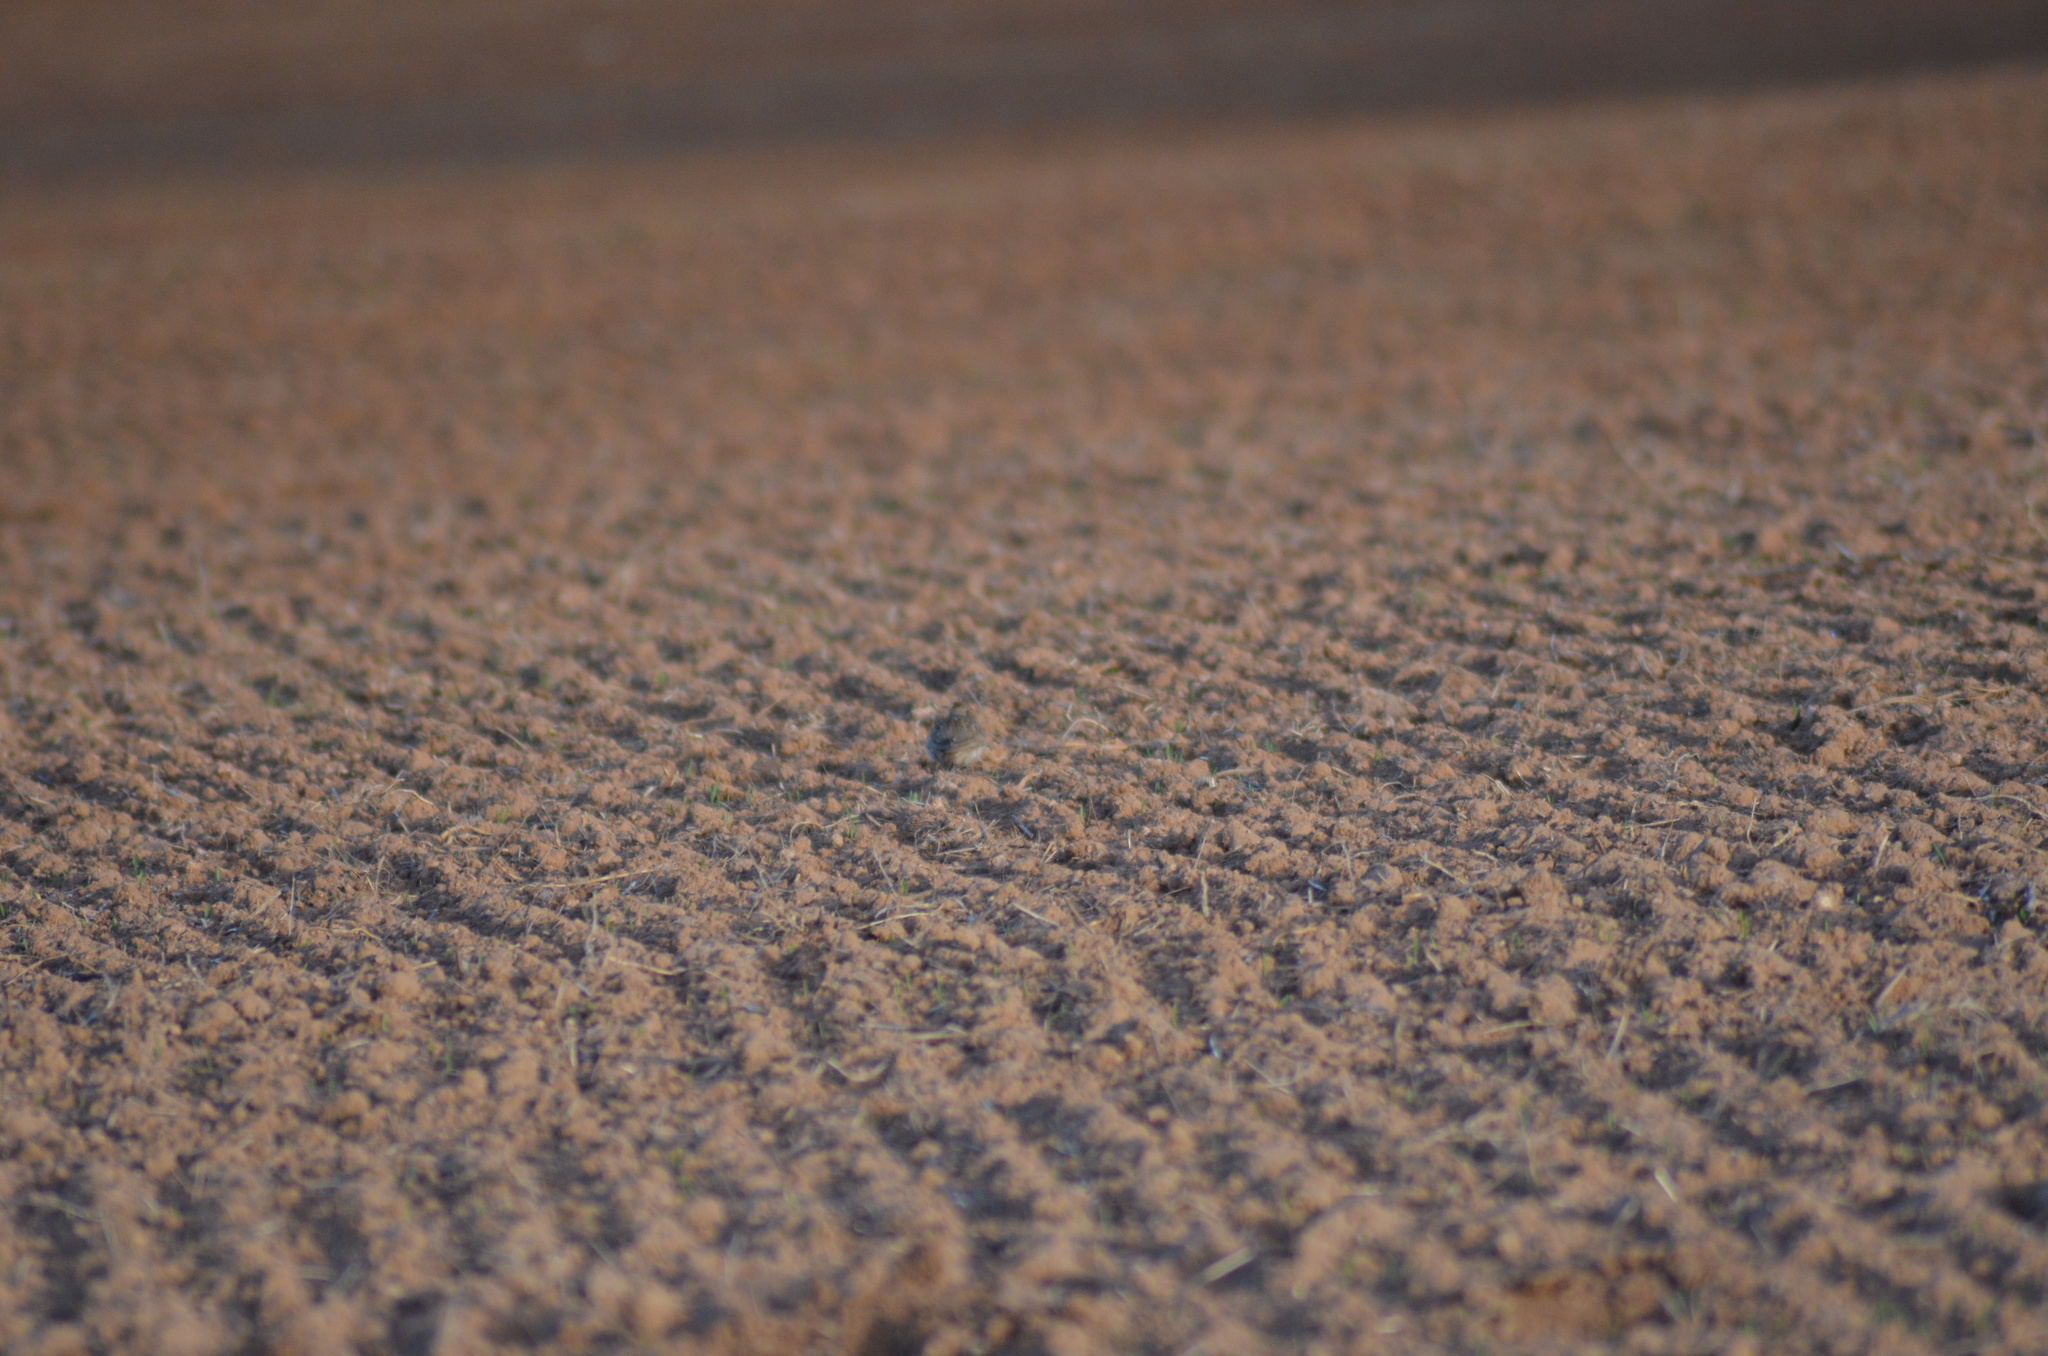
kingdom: Animalia
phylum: Chordata
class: Aves
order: Passeriformes
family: Alaudidae
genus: Galerida
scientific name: Galerida cristata
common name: Crested lark
